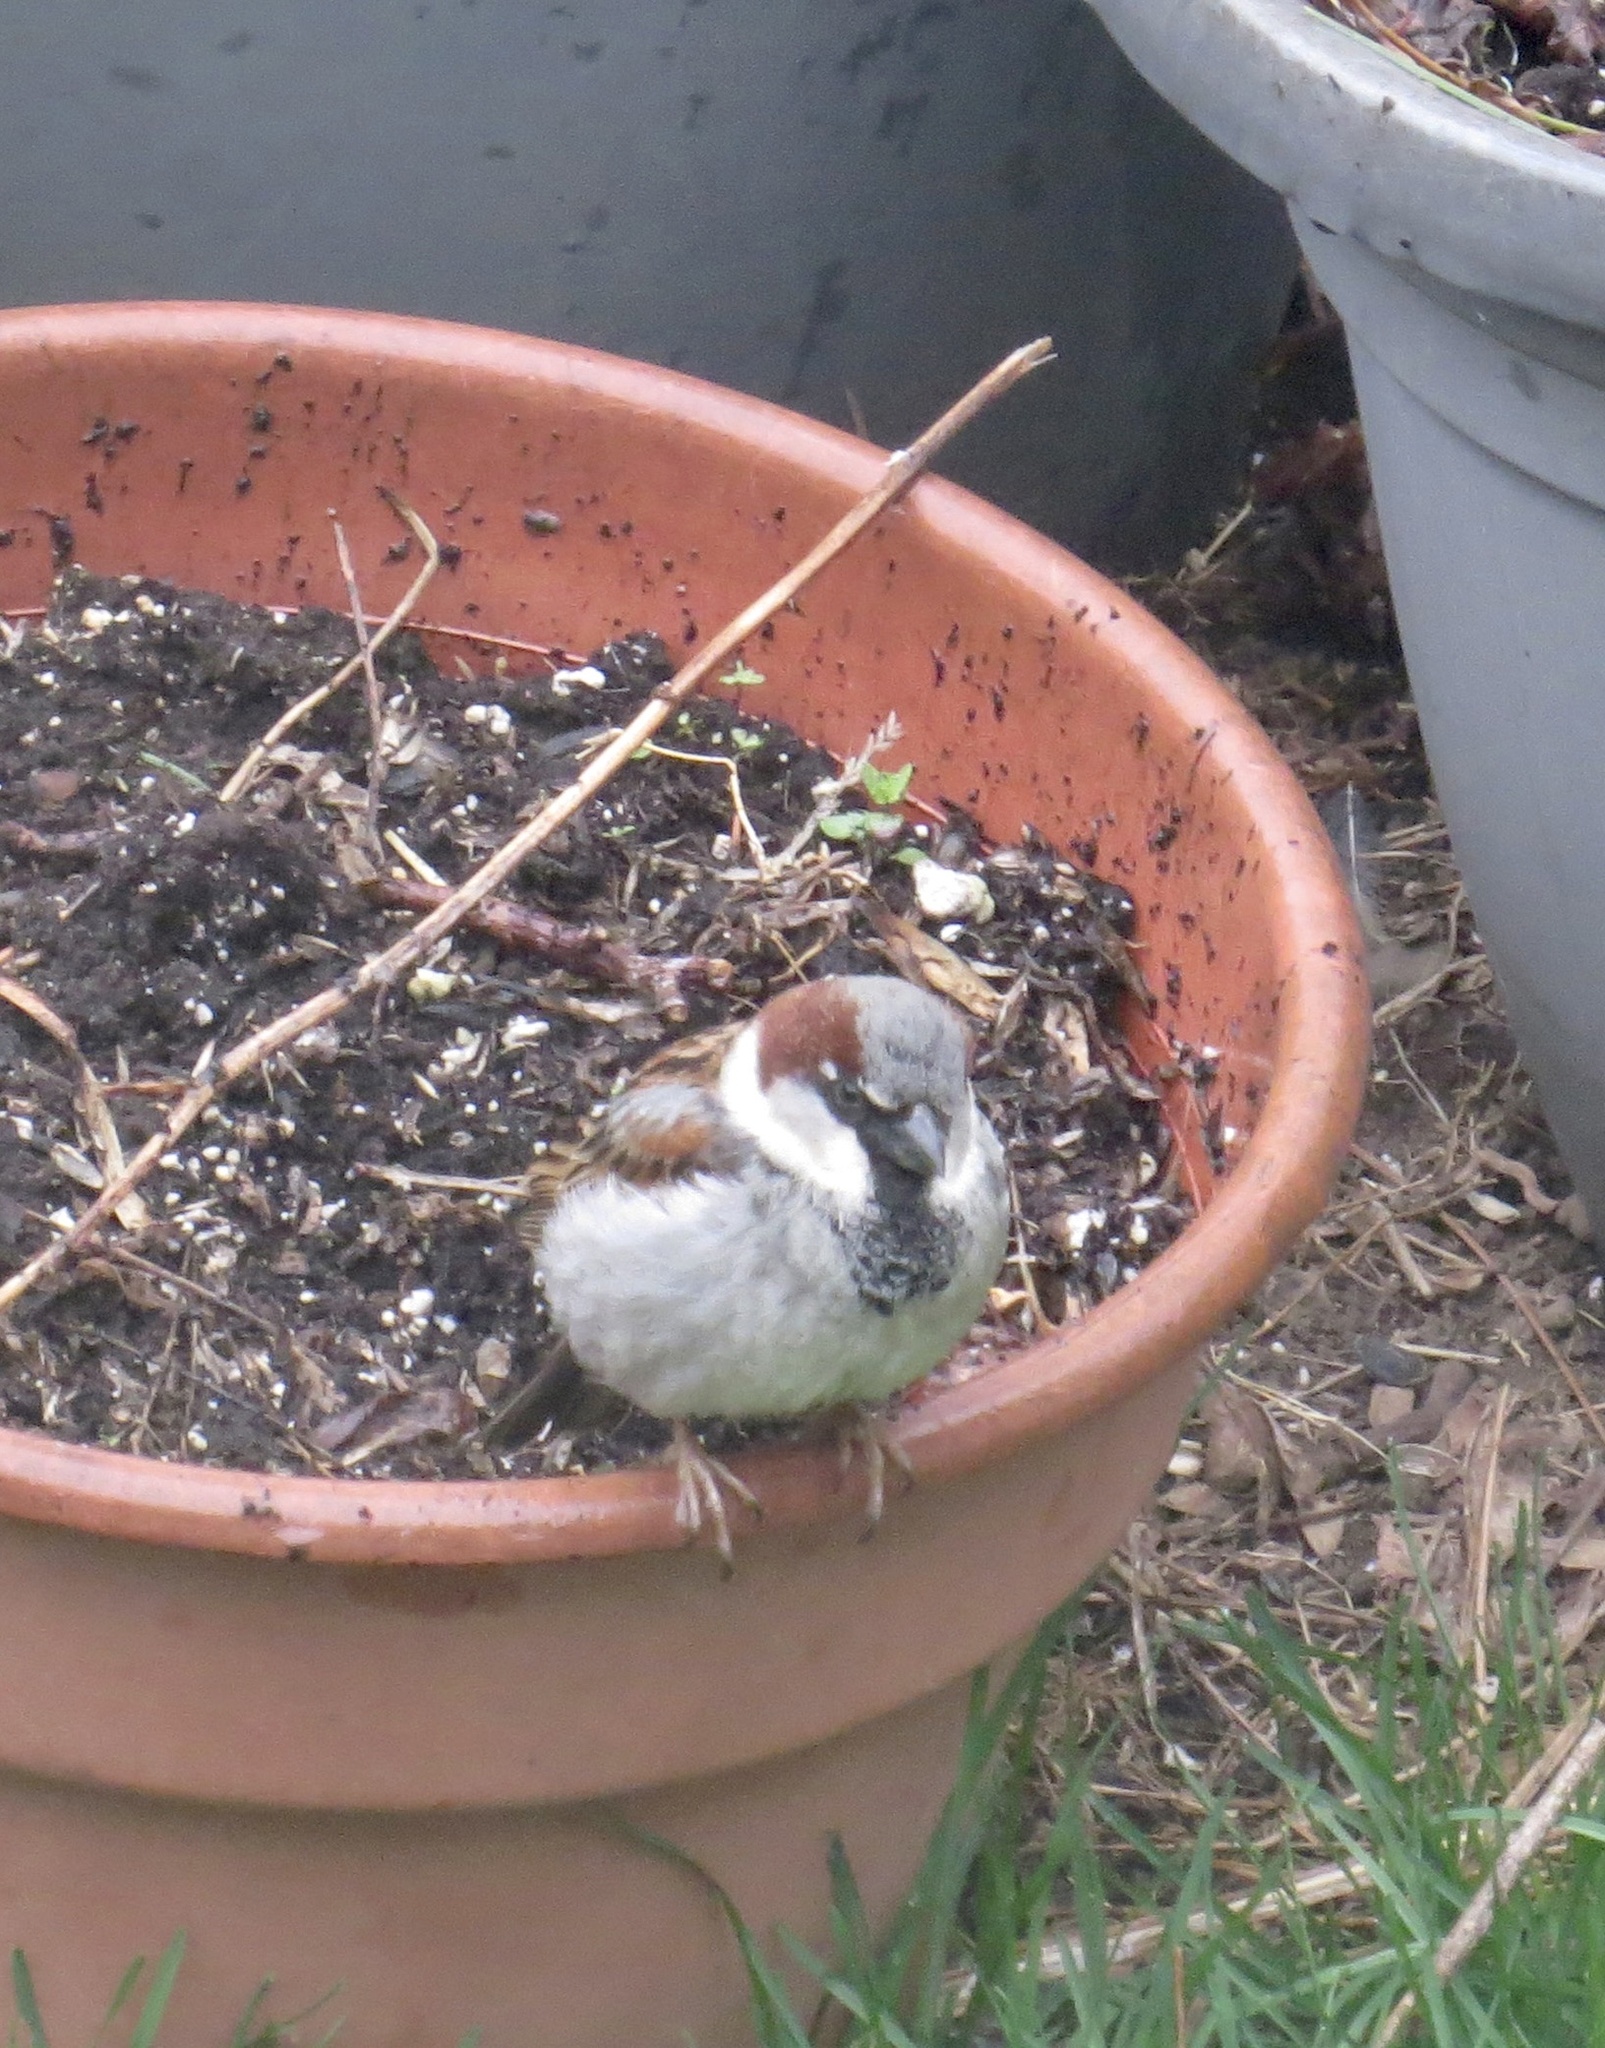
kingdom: Animalia
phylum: Chordata
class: Aves
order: Passeriformes
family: Passeridae
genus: Passer
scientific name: Passer domesticus
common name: House sparrow
